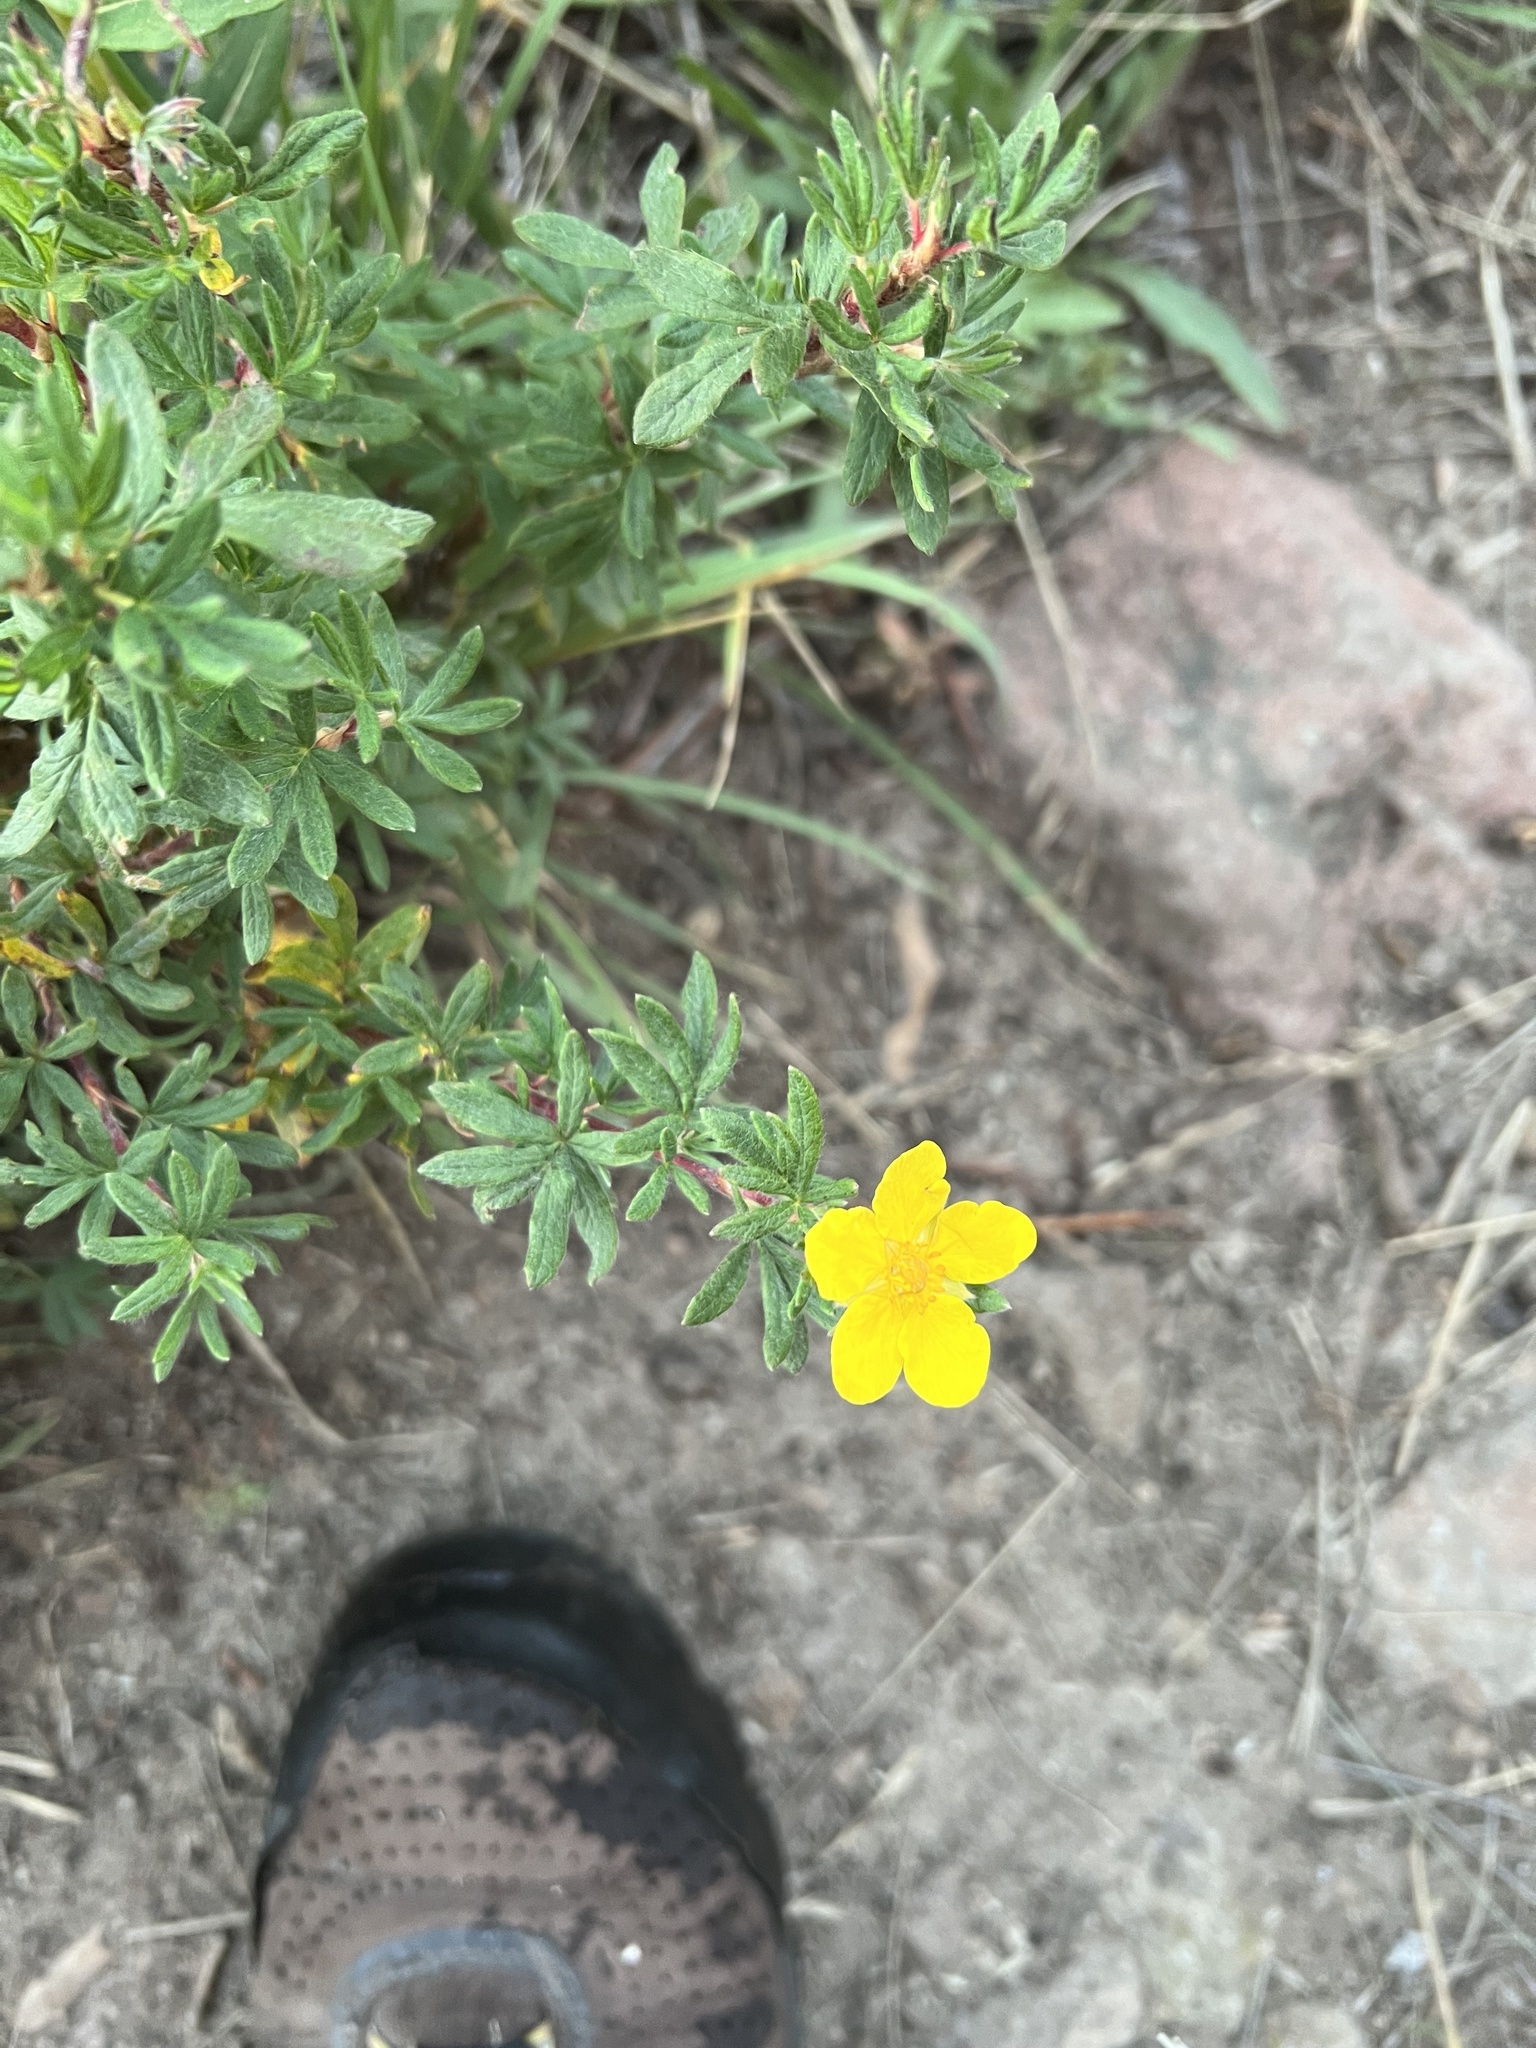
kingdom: Plantae
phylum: Tracheophyta
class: Magnoliopsida
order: Rosales
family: Rosaceae
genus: Dasiphora
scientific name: Dasiphora fruticosa
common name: Shrubby cinquefoil
